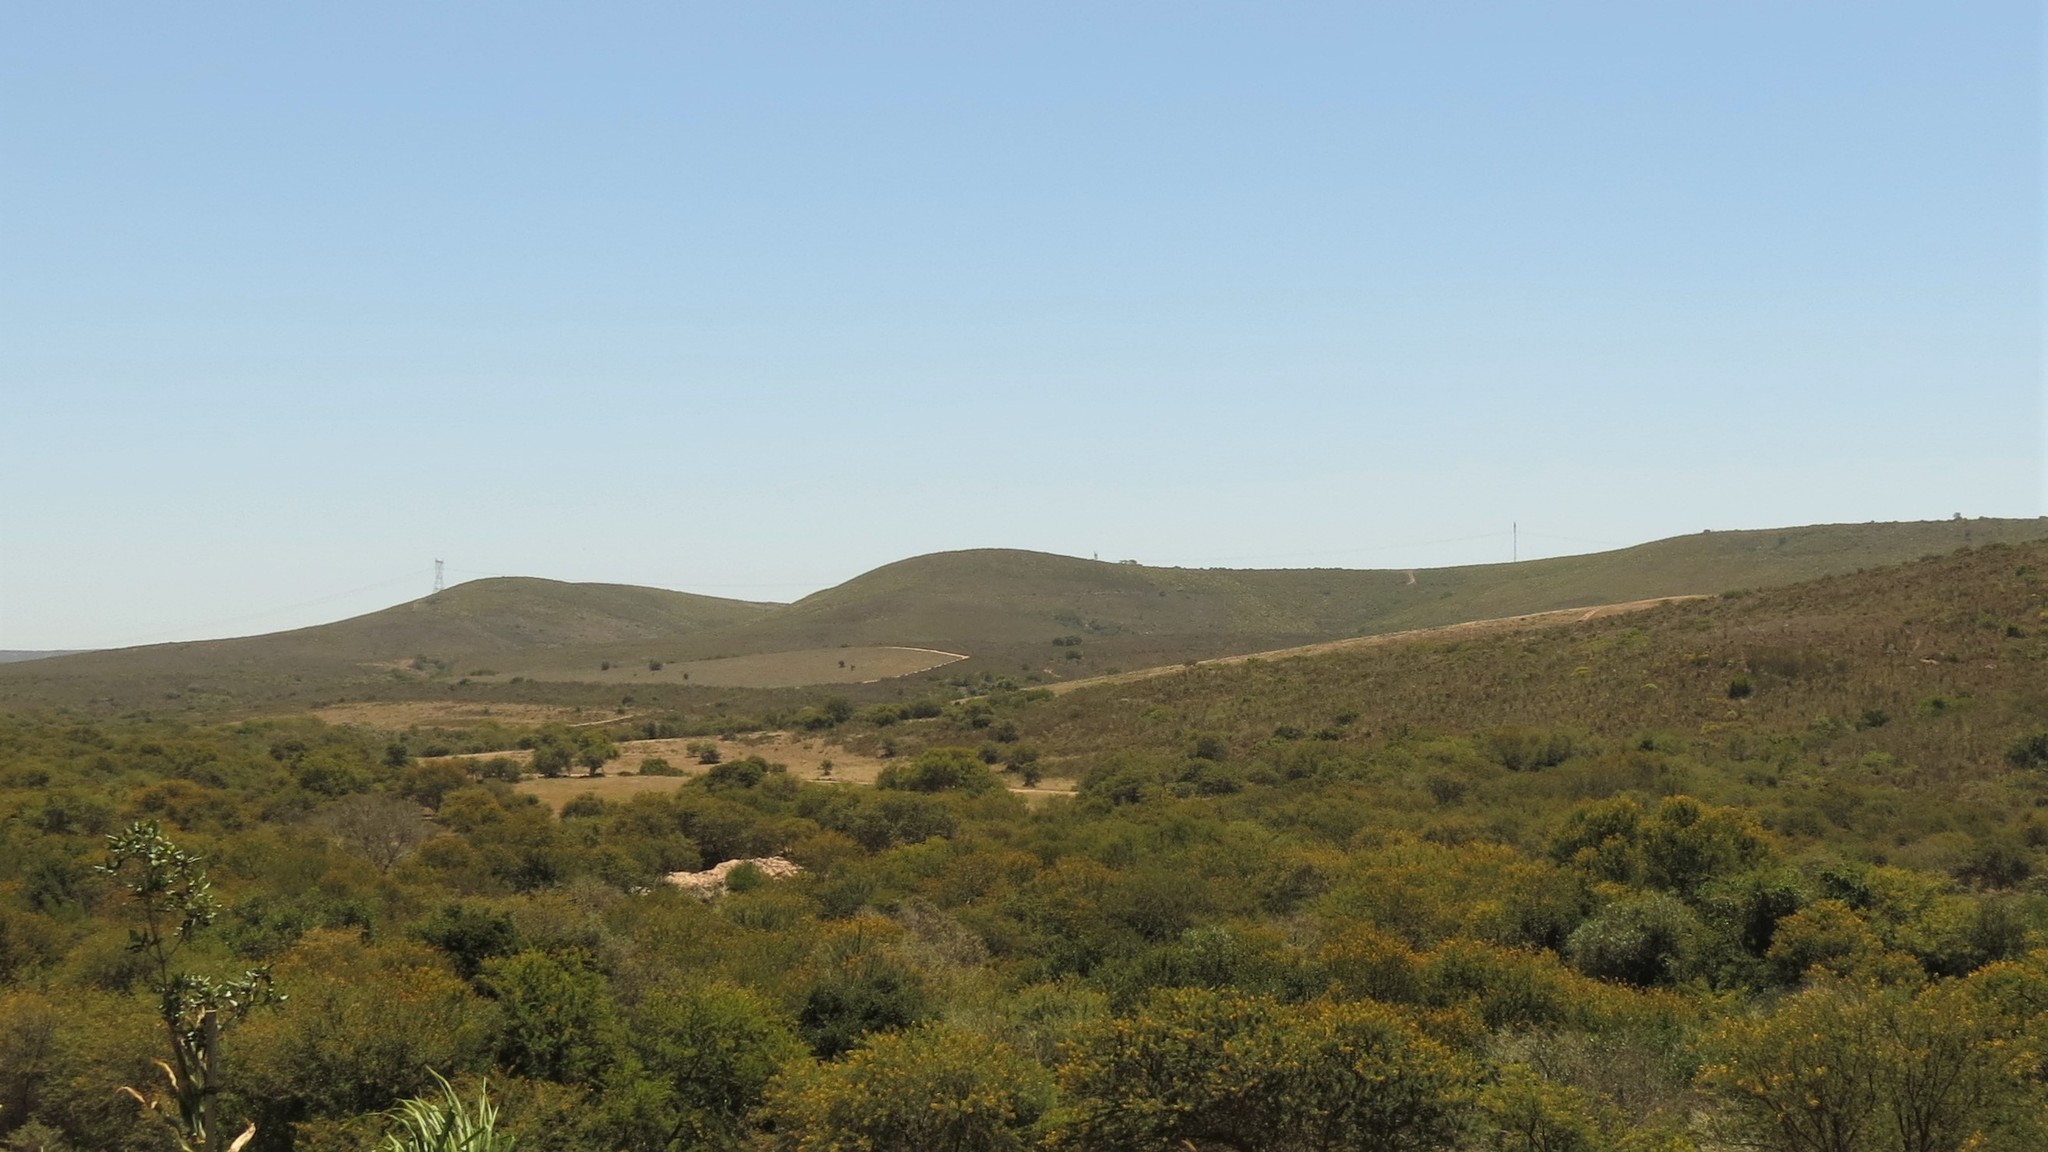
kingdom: Plantae
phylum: Tracheophyta
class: Magnoliopsida
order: Fabales
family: Fabaceae
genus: Vachellia
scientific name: Vachellia karroo
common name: Sweet thorn
